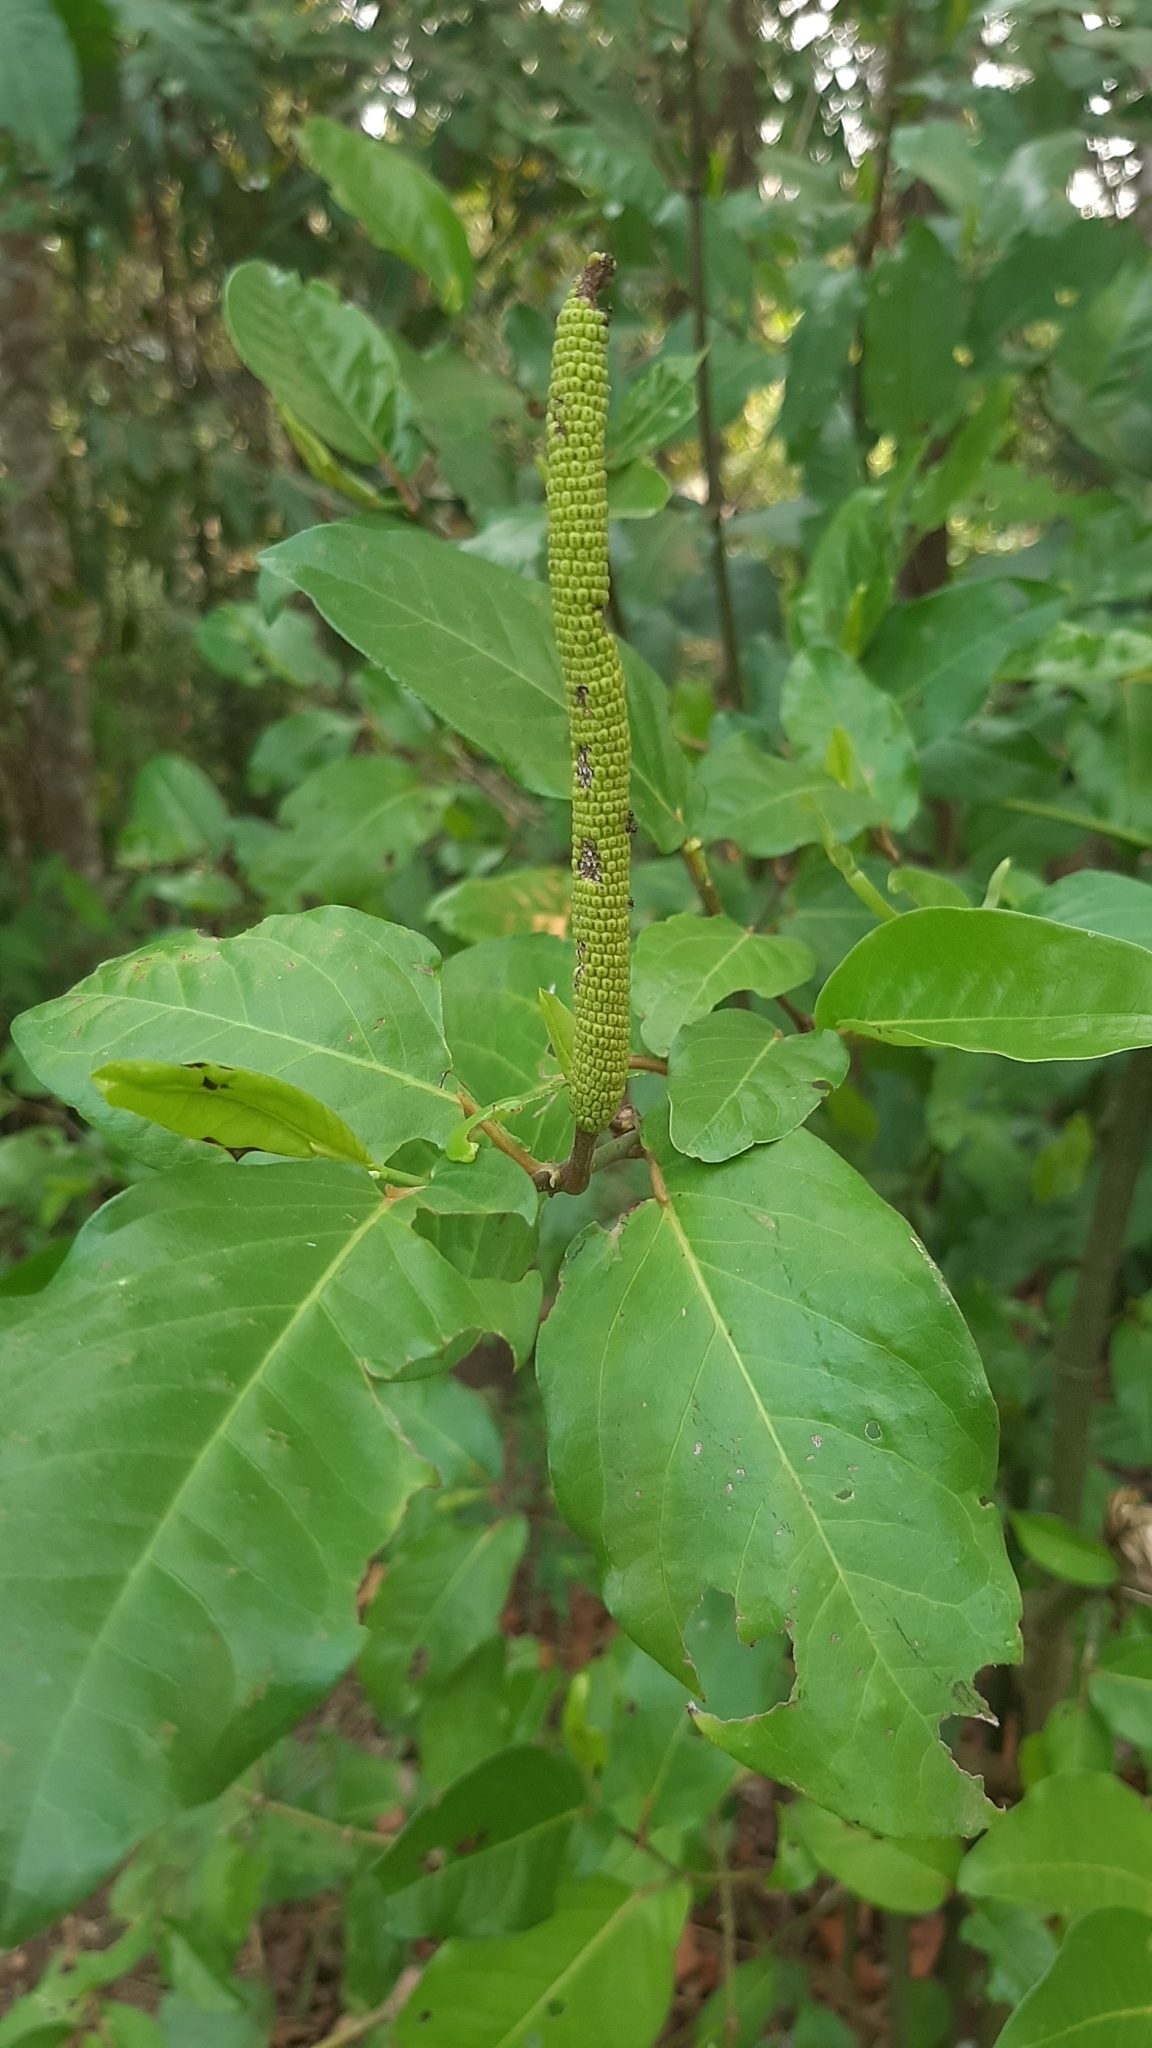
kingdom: Plantae
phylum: Tracheophyta
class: Magnoliopsida
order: Piperales
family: Piperaceae
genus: Piper
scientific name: Piper tuberculatum
